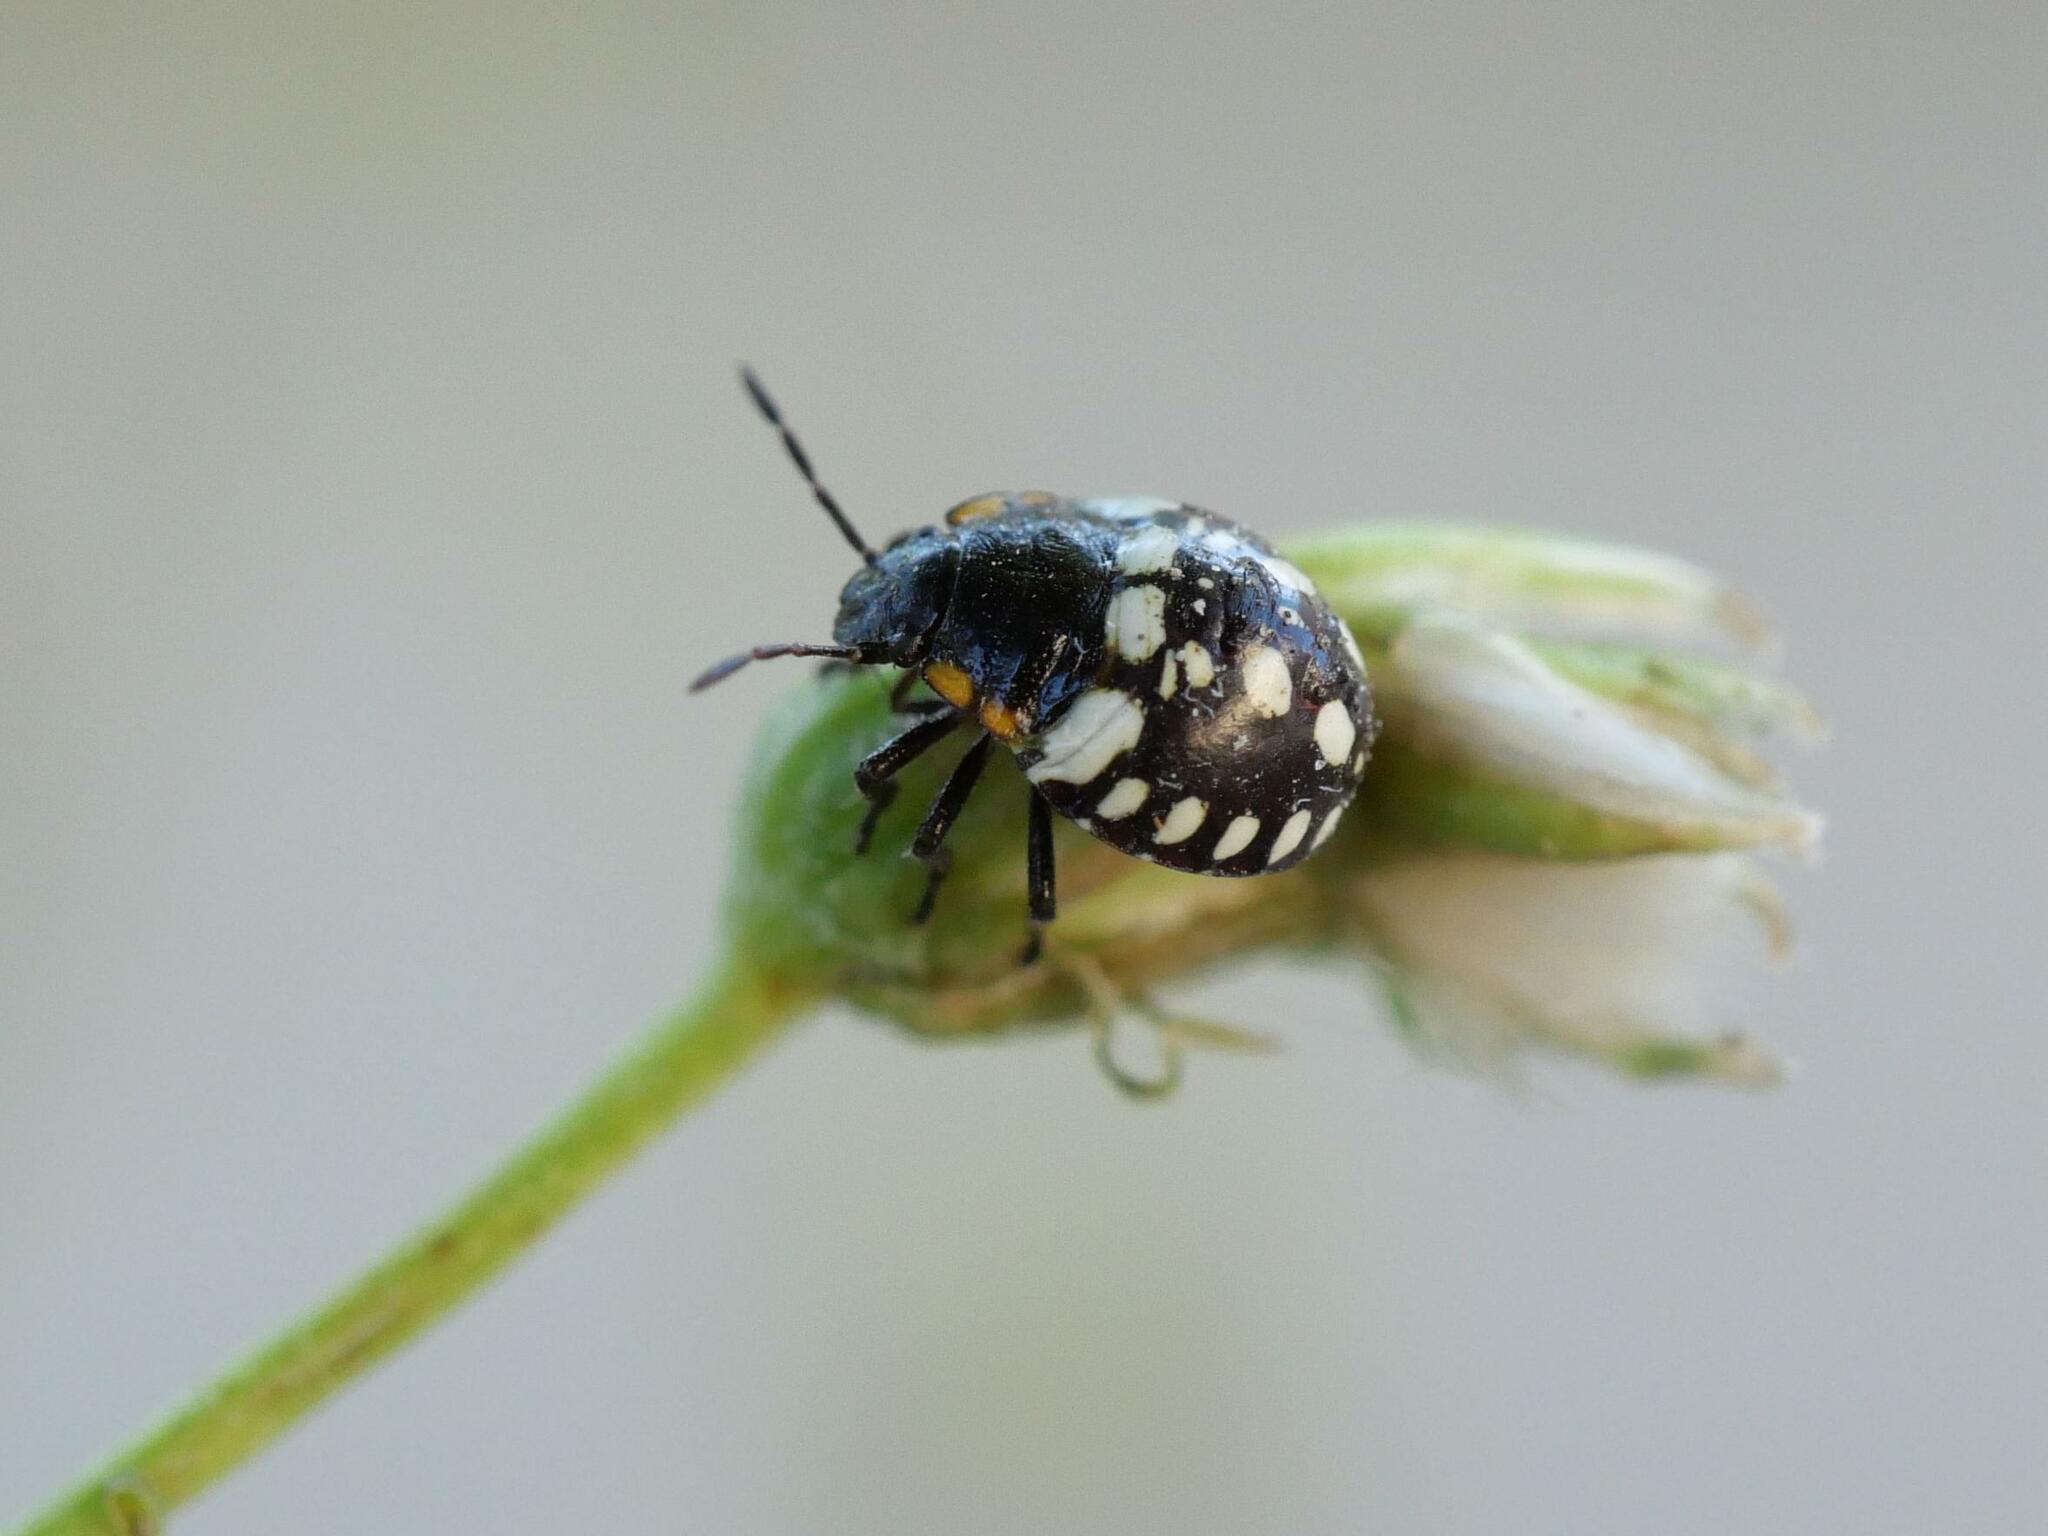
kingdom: Animalia
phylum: Arthropoda
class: Insecta
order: Hemiptera
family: Pentatomidae
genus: Nezara
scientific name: Nezara viridula
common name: Southern green stink bug
